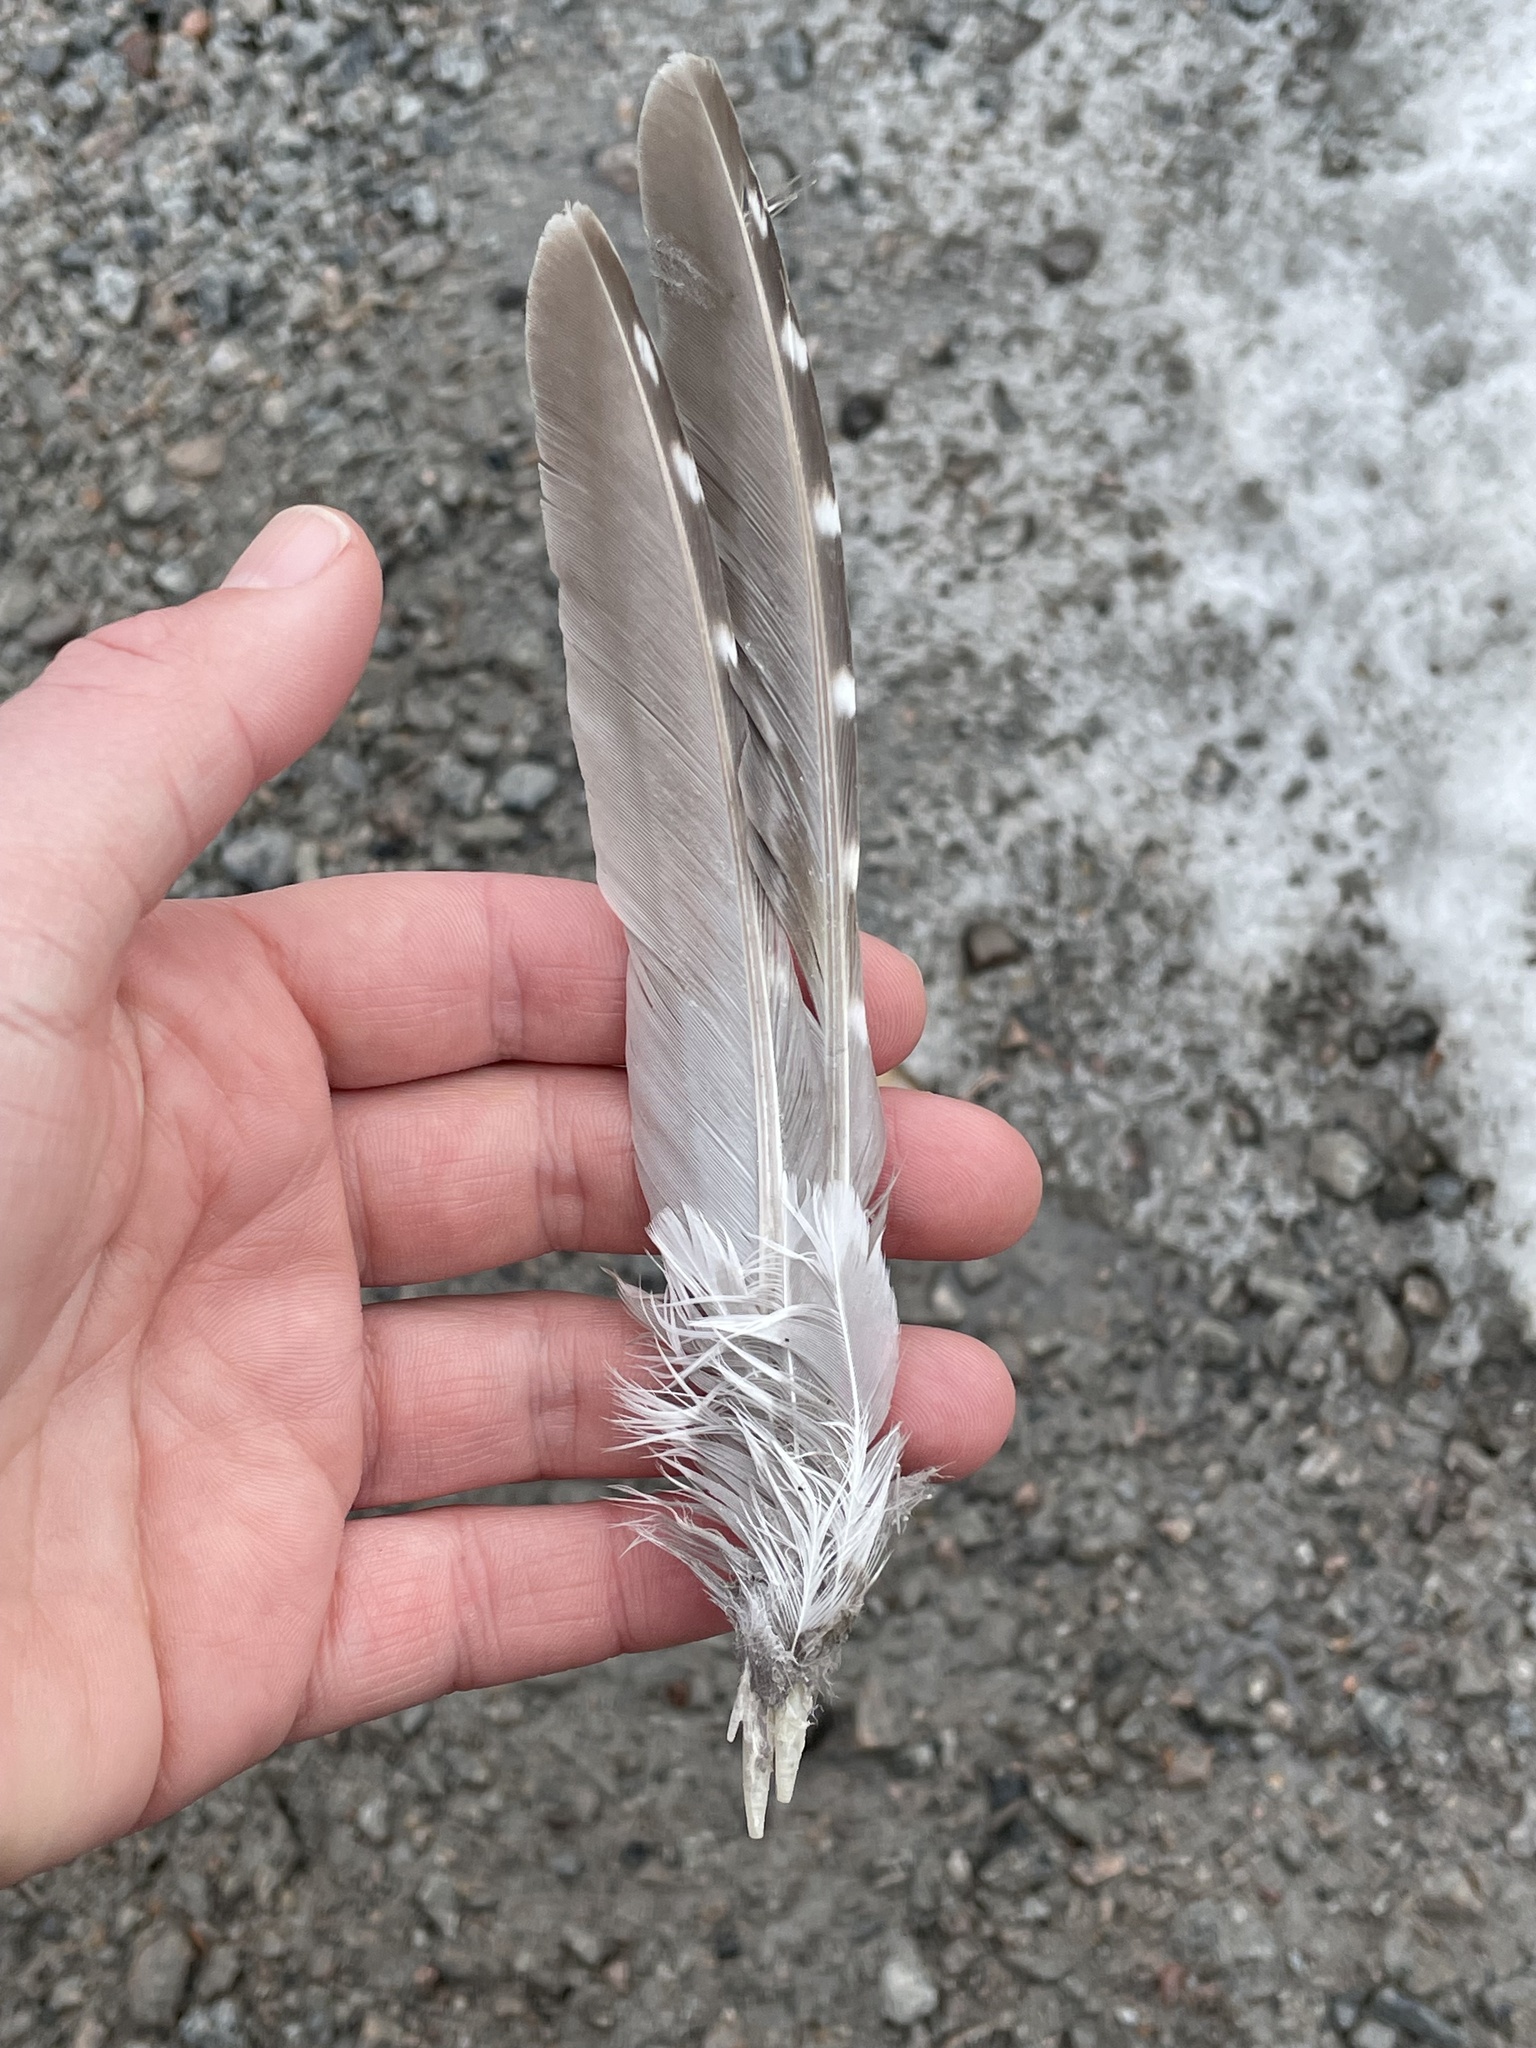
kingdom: Animalia
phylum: Chordata
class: Aves
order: Galliformes
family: Phasianidae
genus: Tympanuchus
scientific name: Tympanuchus phasianellus
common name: Sharp-tailed grouse
